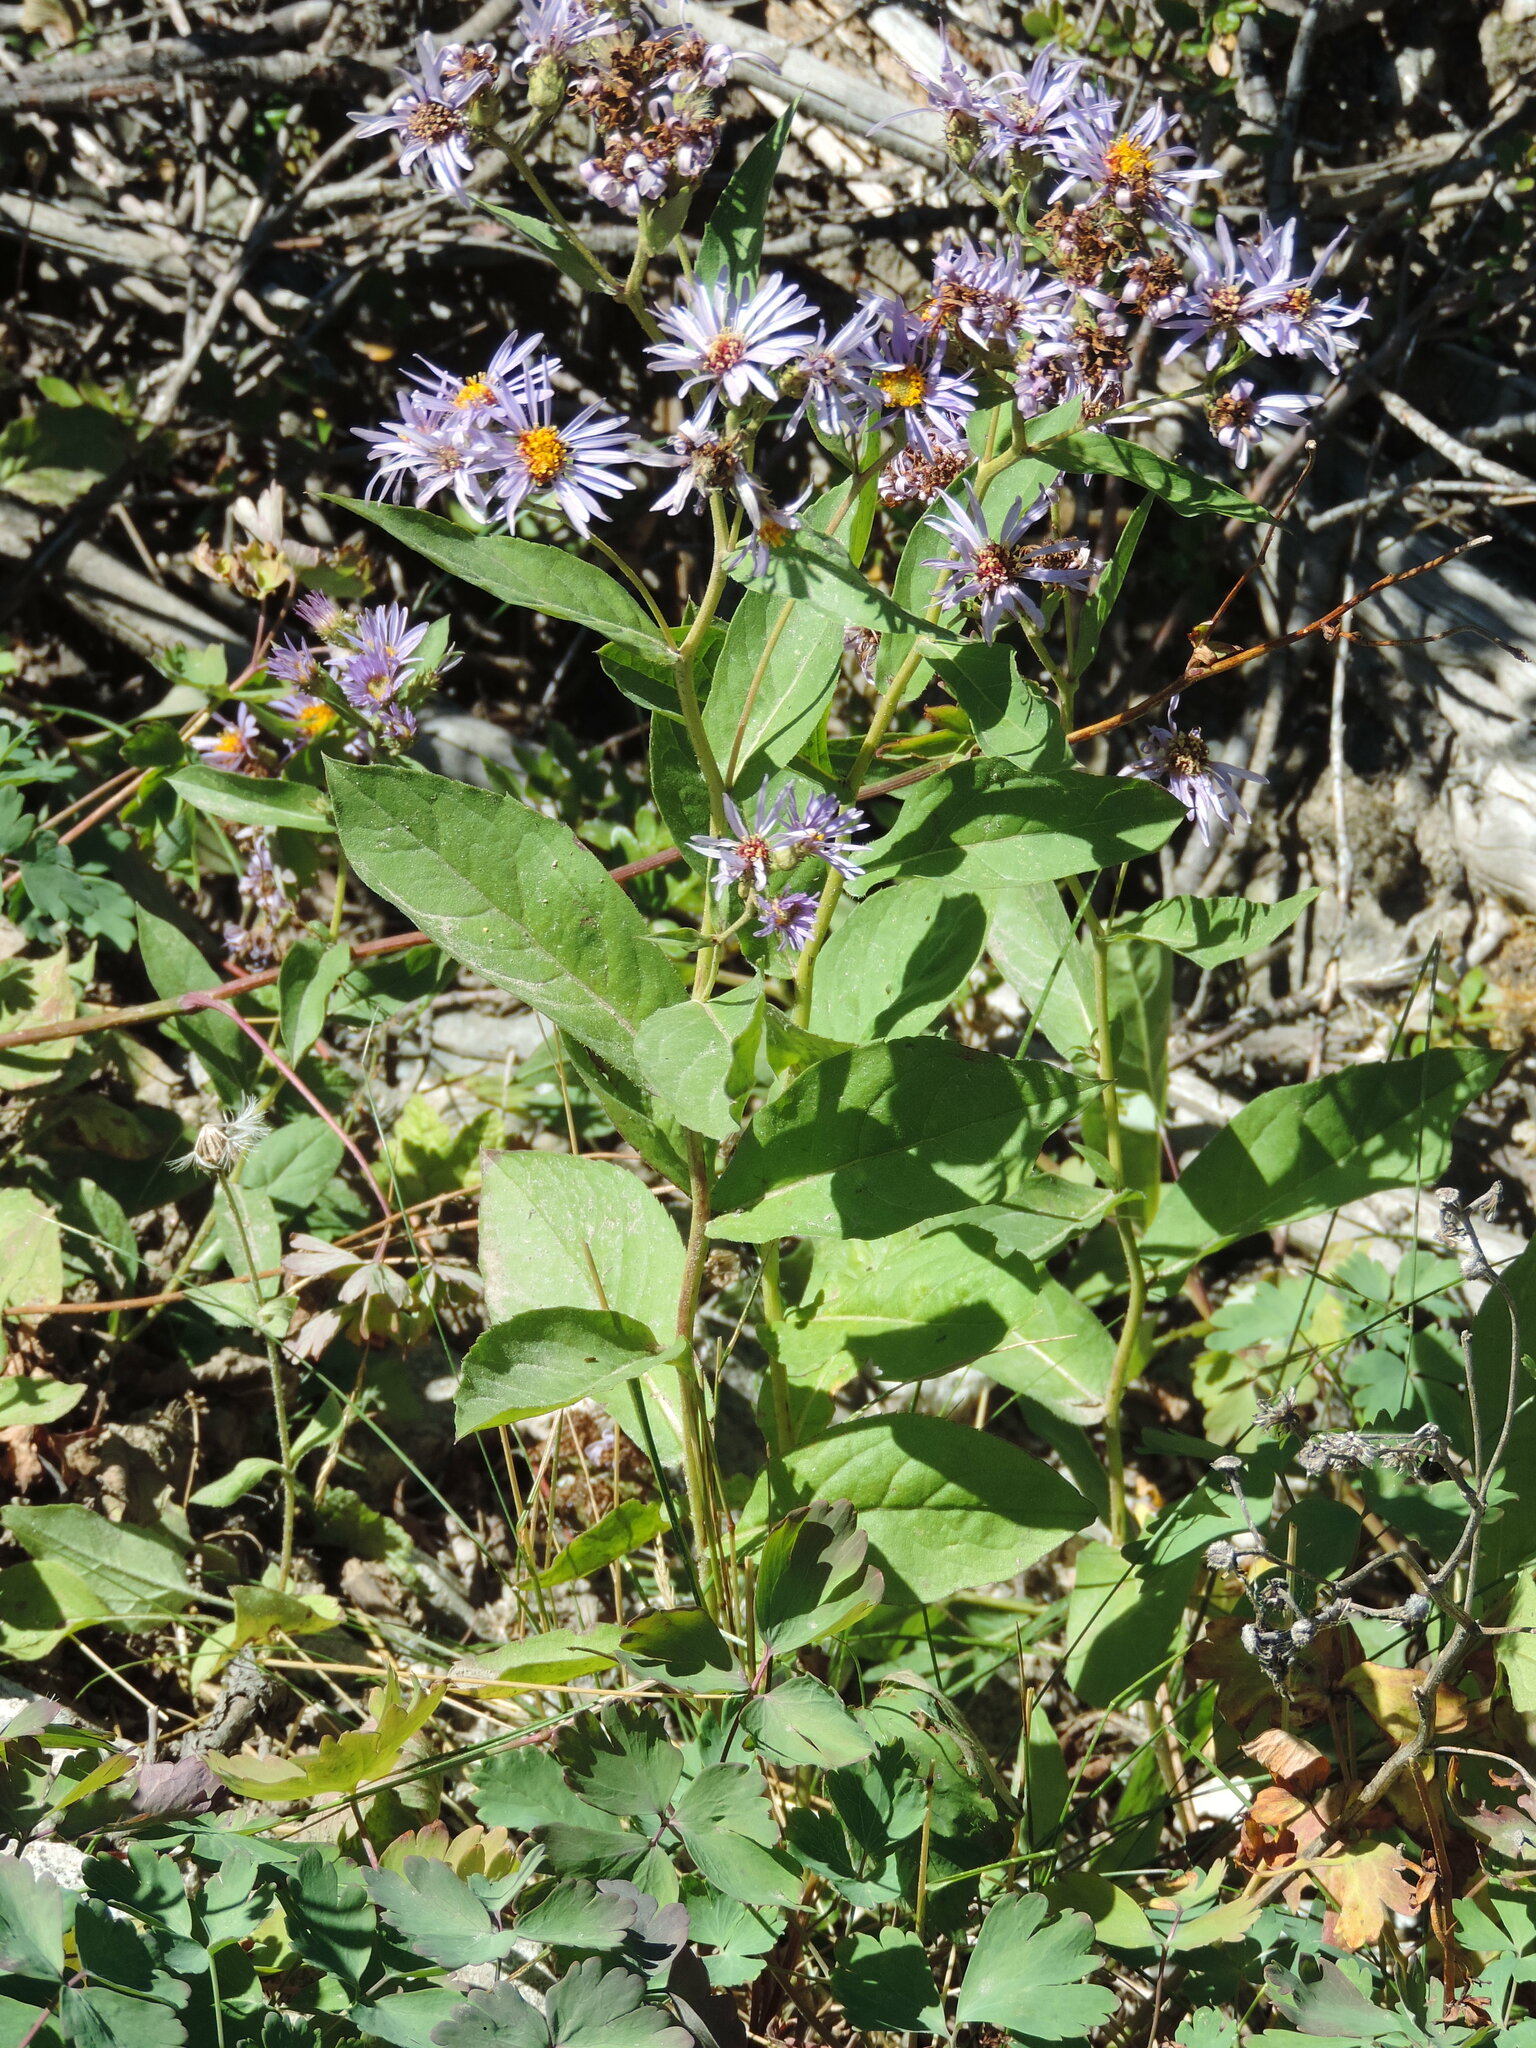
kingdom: Plantae
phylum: Tracheophyta
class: Magnoliopsida
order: Asterales
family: Asteraceae
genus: Eurybia
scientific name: Eurybia conspicua
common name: Showy aster
